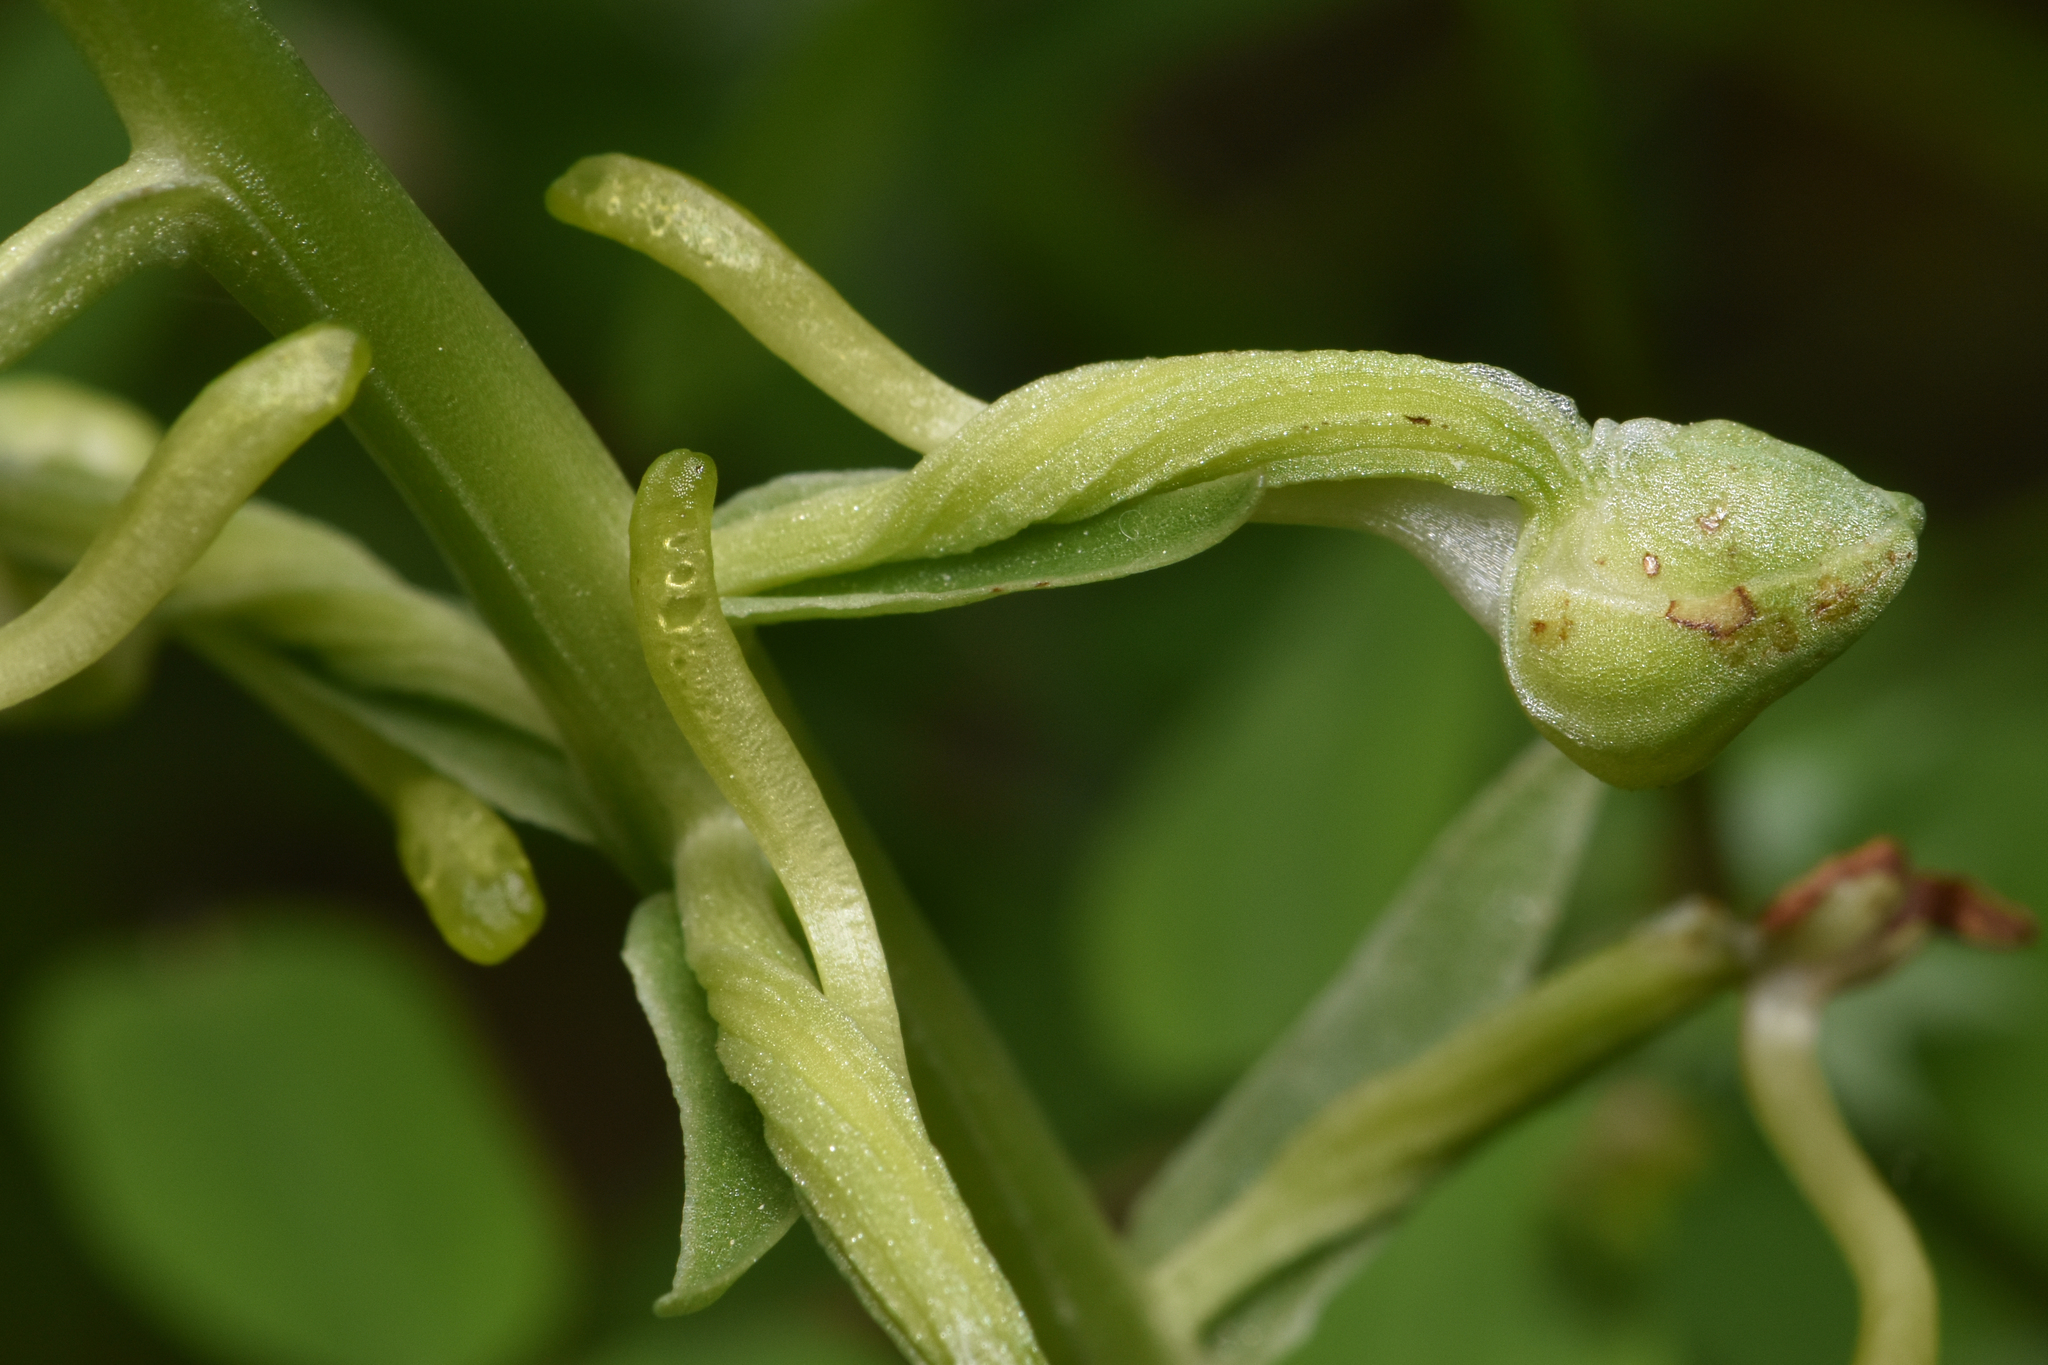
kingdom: Plantae
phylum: Tracheophyta
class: Liliopsida
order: Asparagales
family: Orchidaceae
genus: Platanthera
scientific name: Platanthera orbiculata
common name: Large round-leaved orchid
